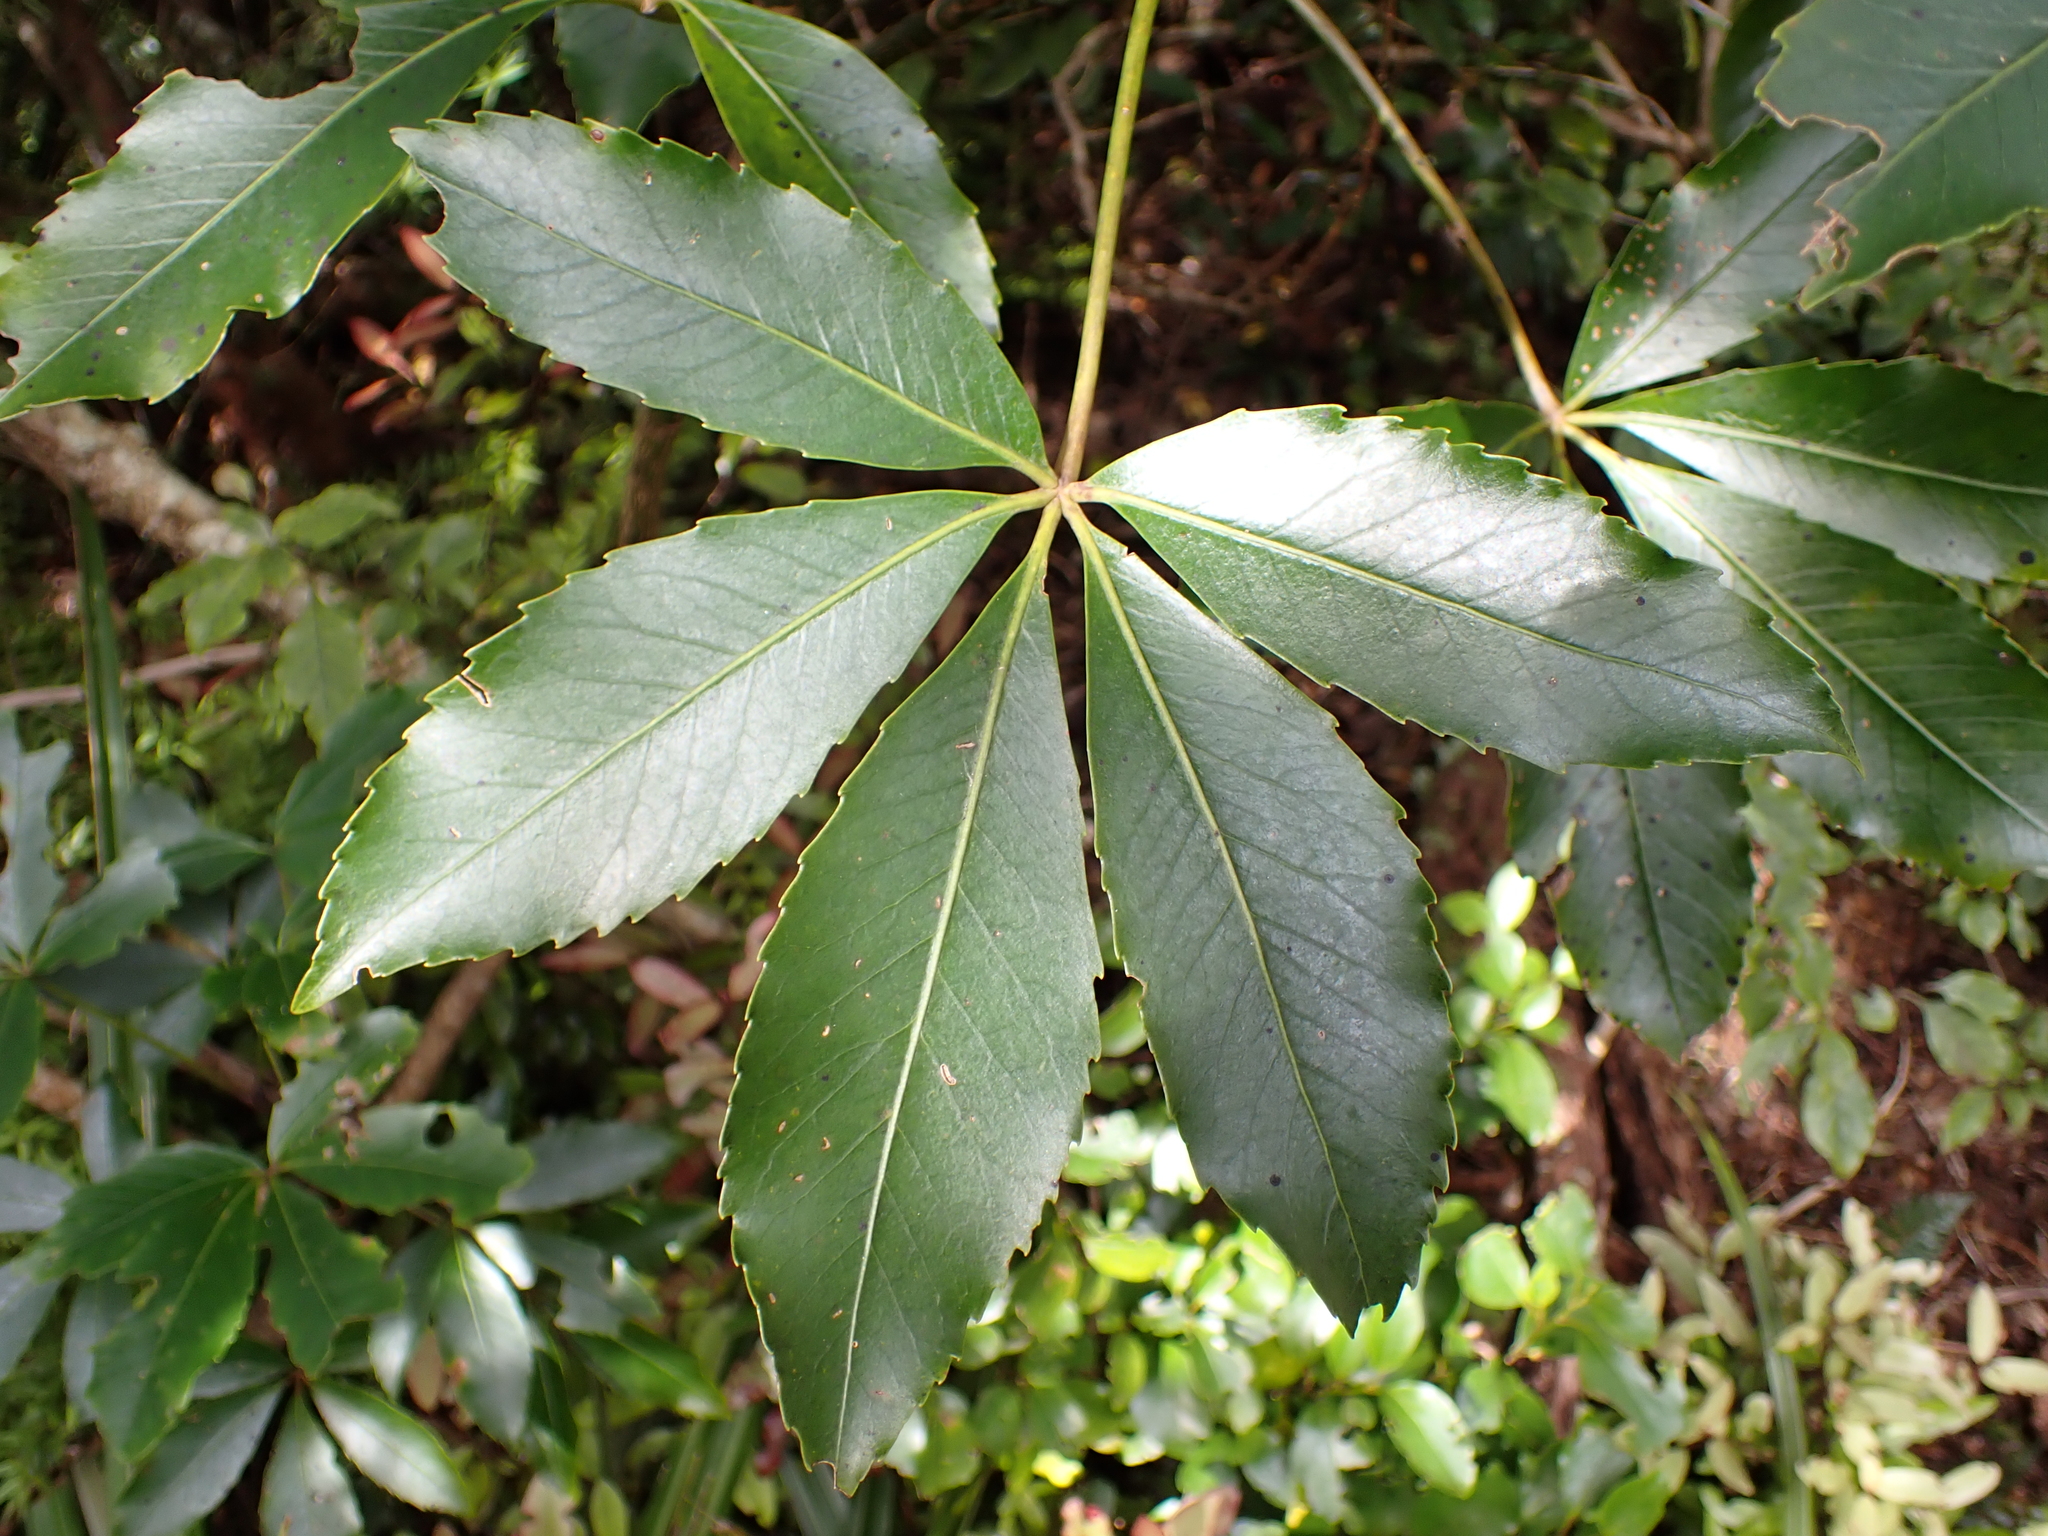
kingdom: Plantae
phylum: Tracheophyta
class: Magnoliopsida
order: Apiales
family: Araliaceae
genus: Neopanax
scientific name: Neopanax colensoi
